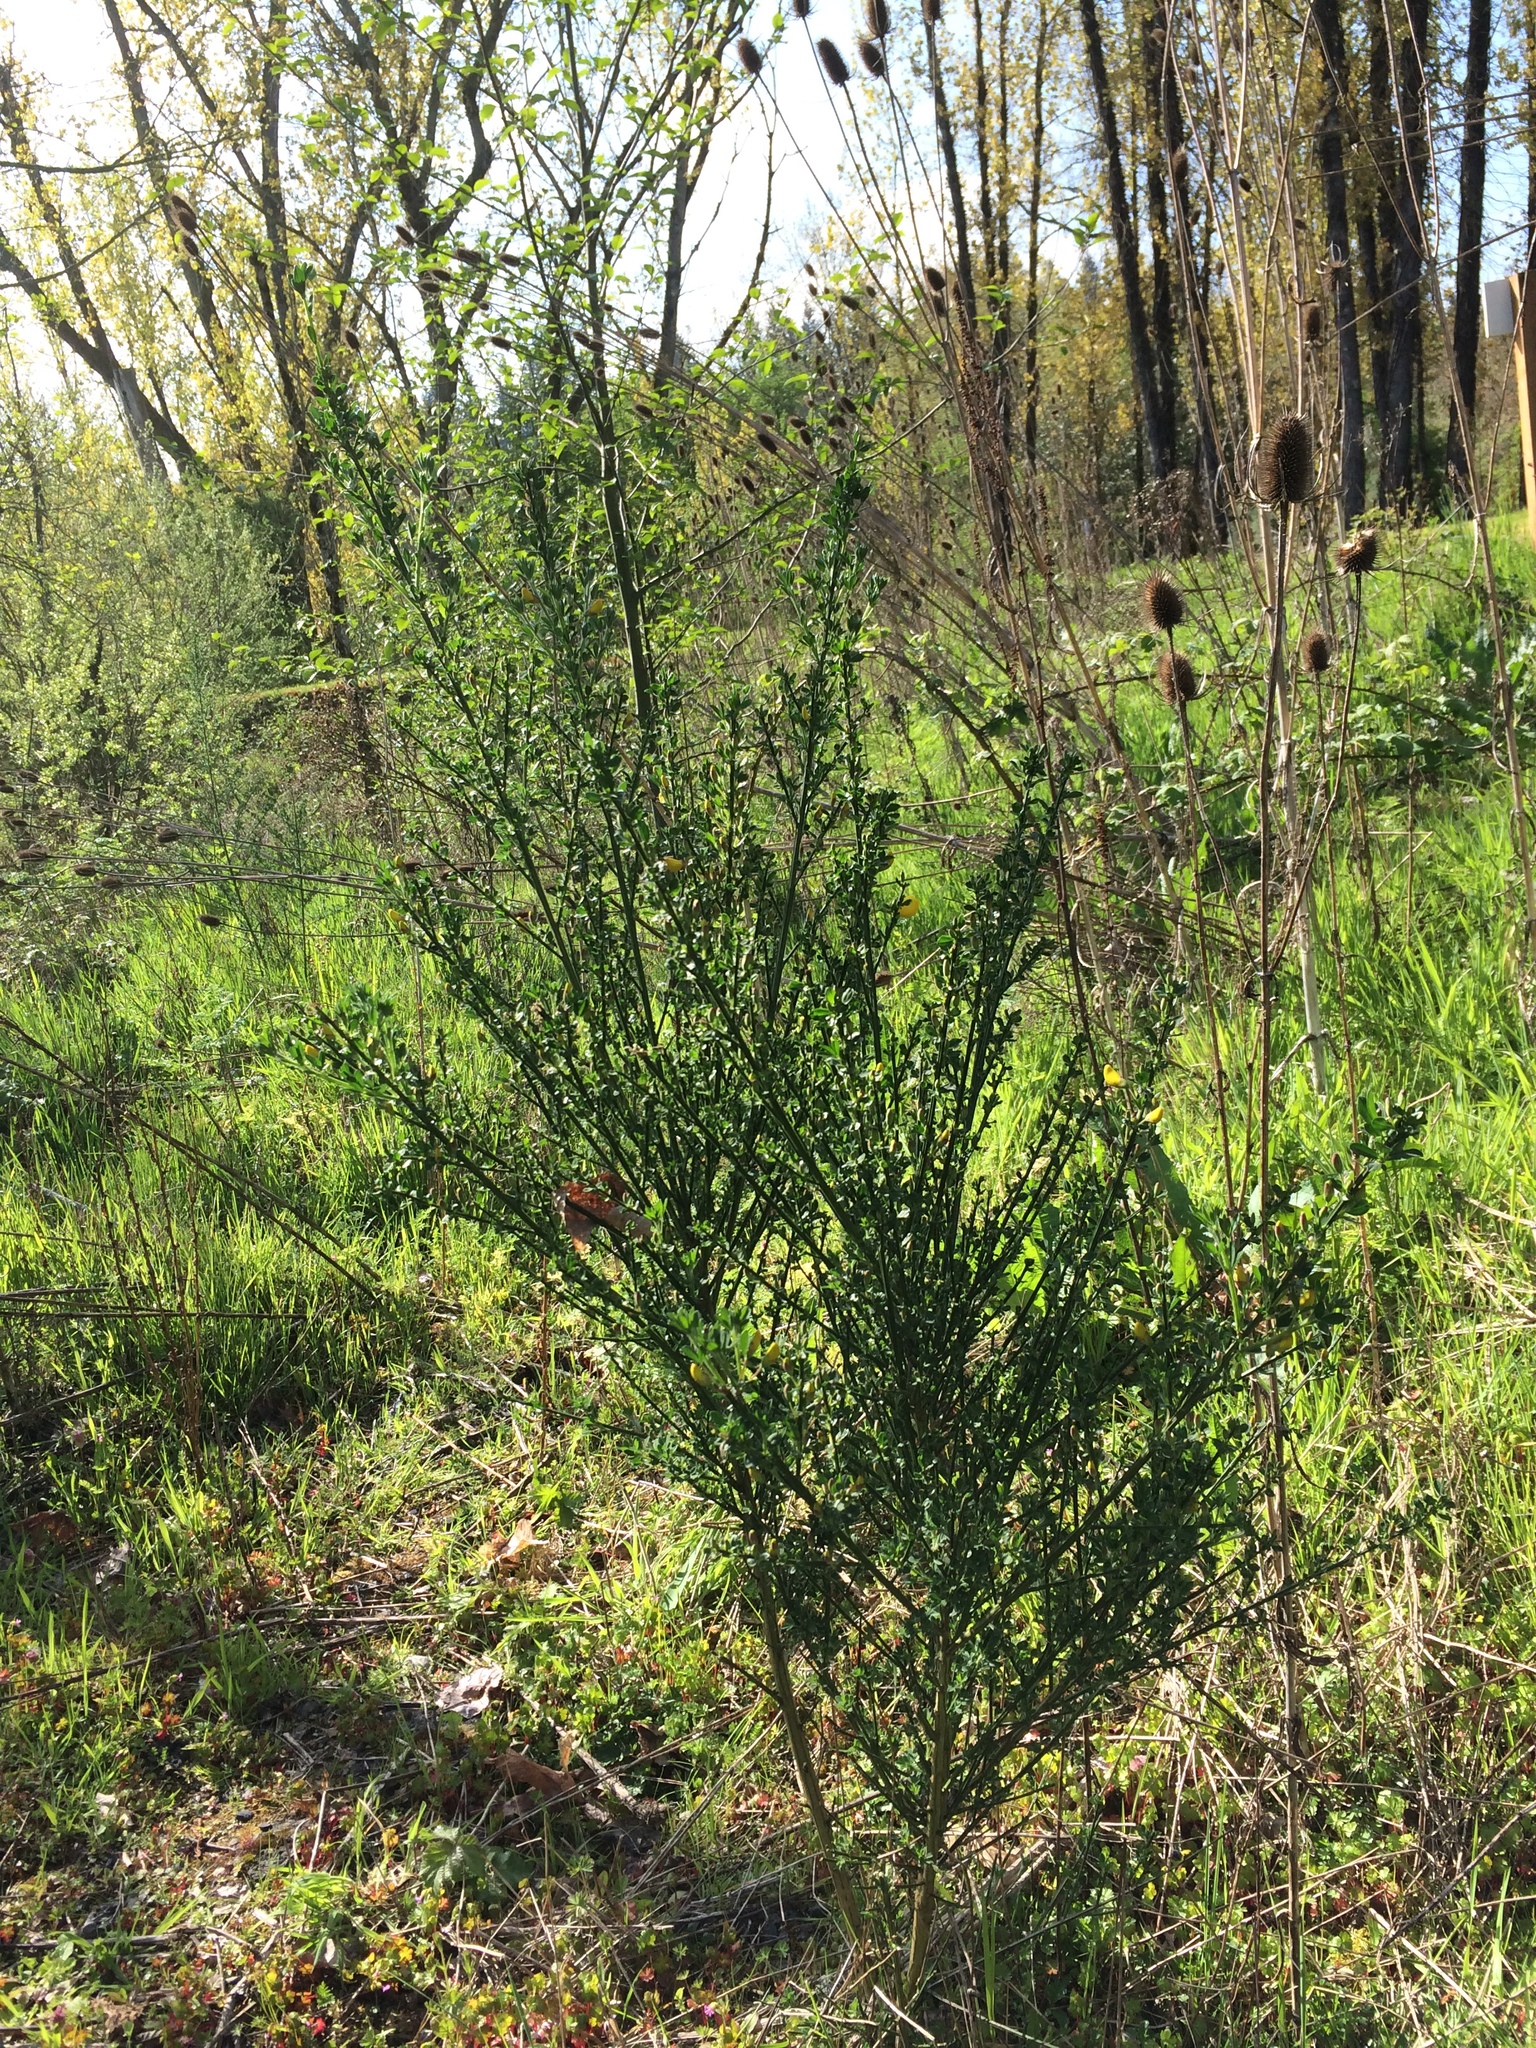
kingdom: Plantae
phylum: Tracheophyta
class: Magnoliopsida
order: Fabales
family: Fabaceae
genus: Cytisus
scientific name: Cytisus scoparius
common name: Scotch broom
